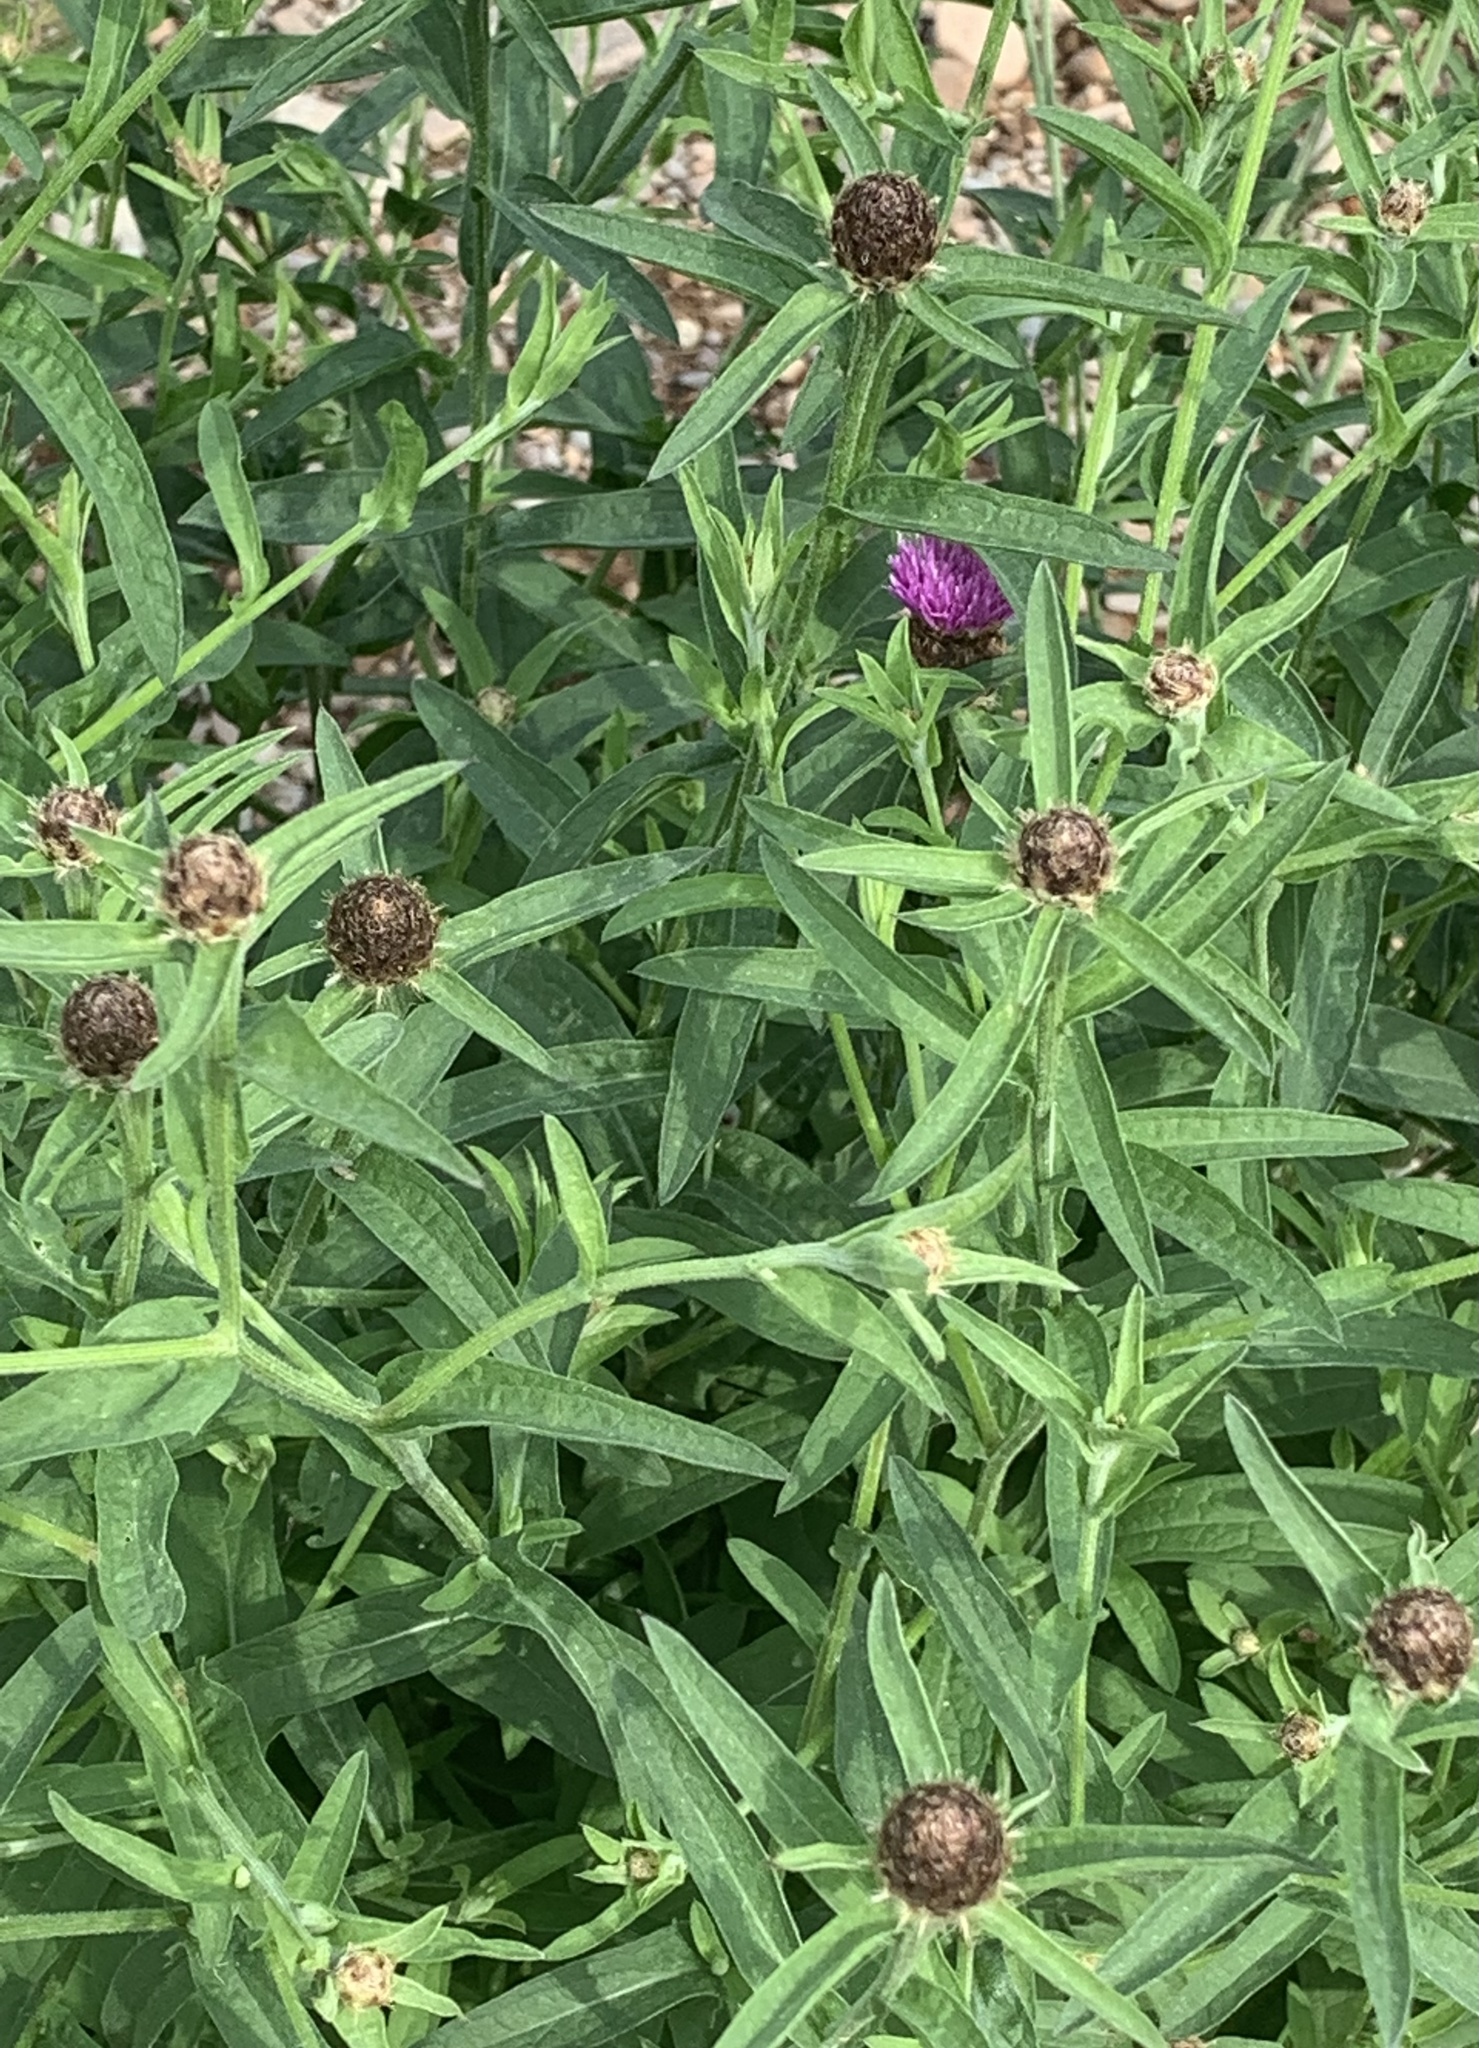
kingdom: Plantae
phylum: Tracheophyta
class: Magnoliopsida
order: Asterales
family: Asteraceae
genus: Centaurea
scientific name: Centaurea nigra
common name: Lesser knapweed
